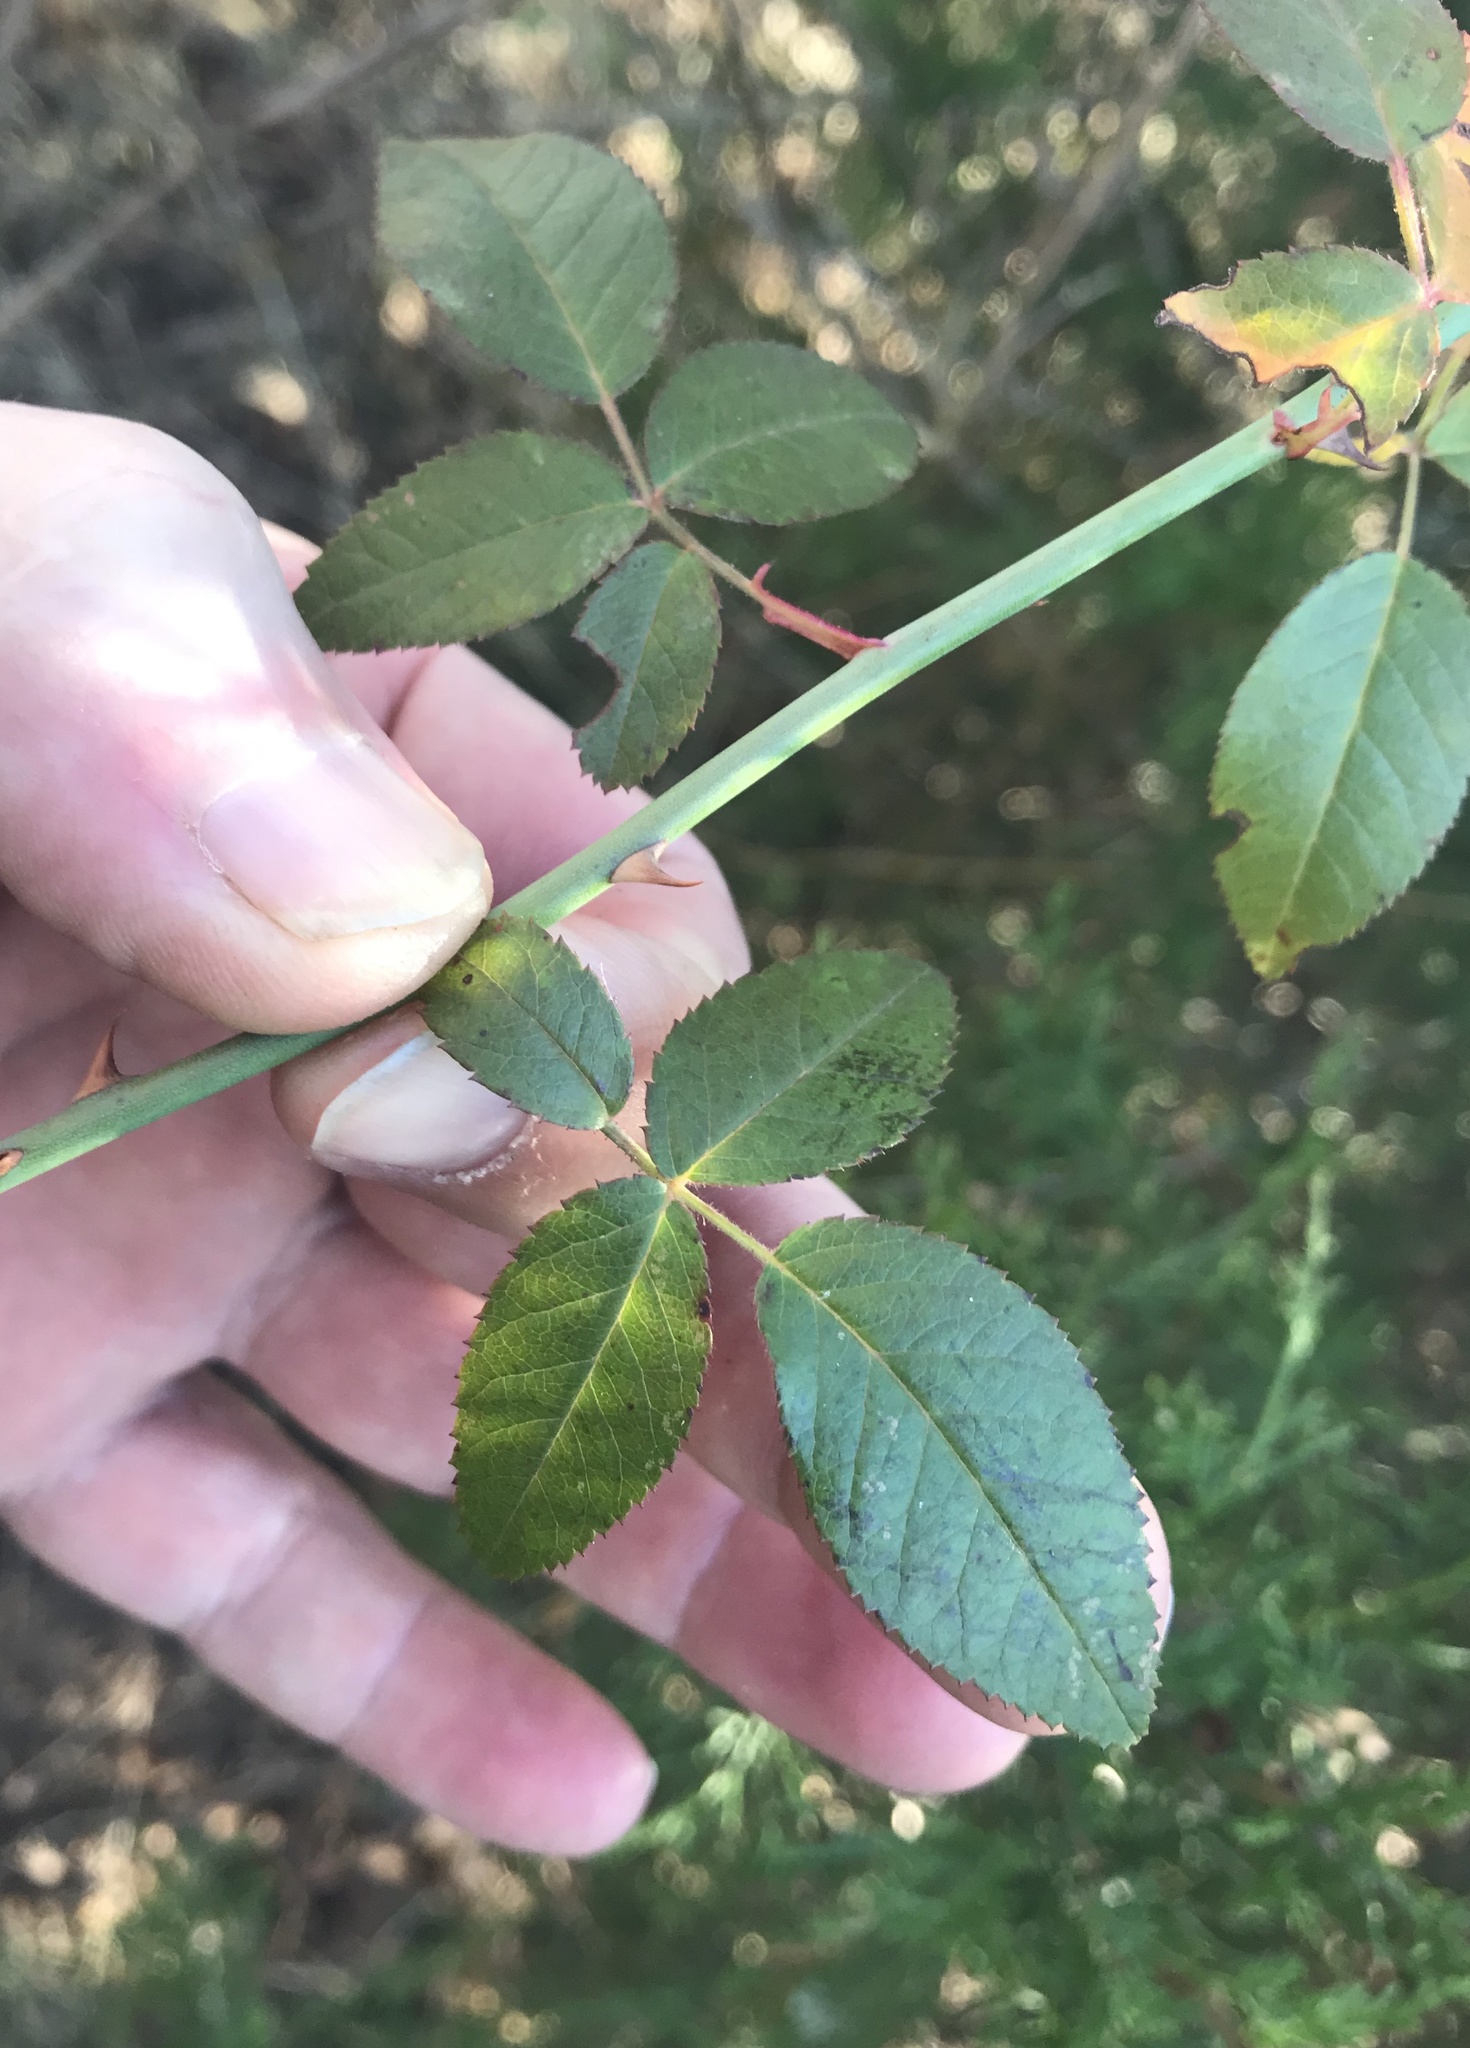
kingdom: Plantae
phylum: Tracheophyta
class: Magnoliopsida
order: Rosales
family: Rosaceae
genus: Rosa
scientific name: Rosa setigera
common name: Prairie rose
